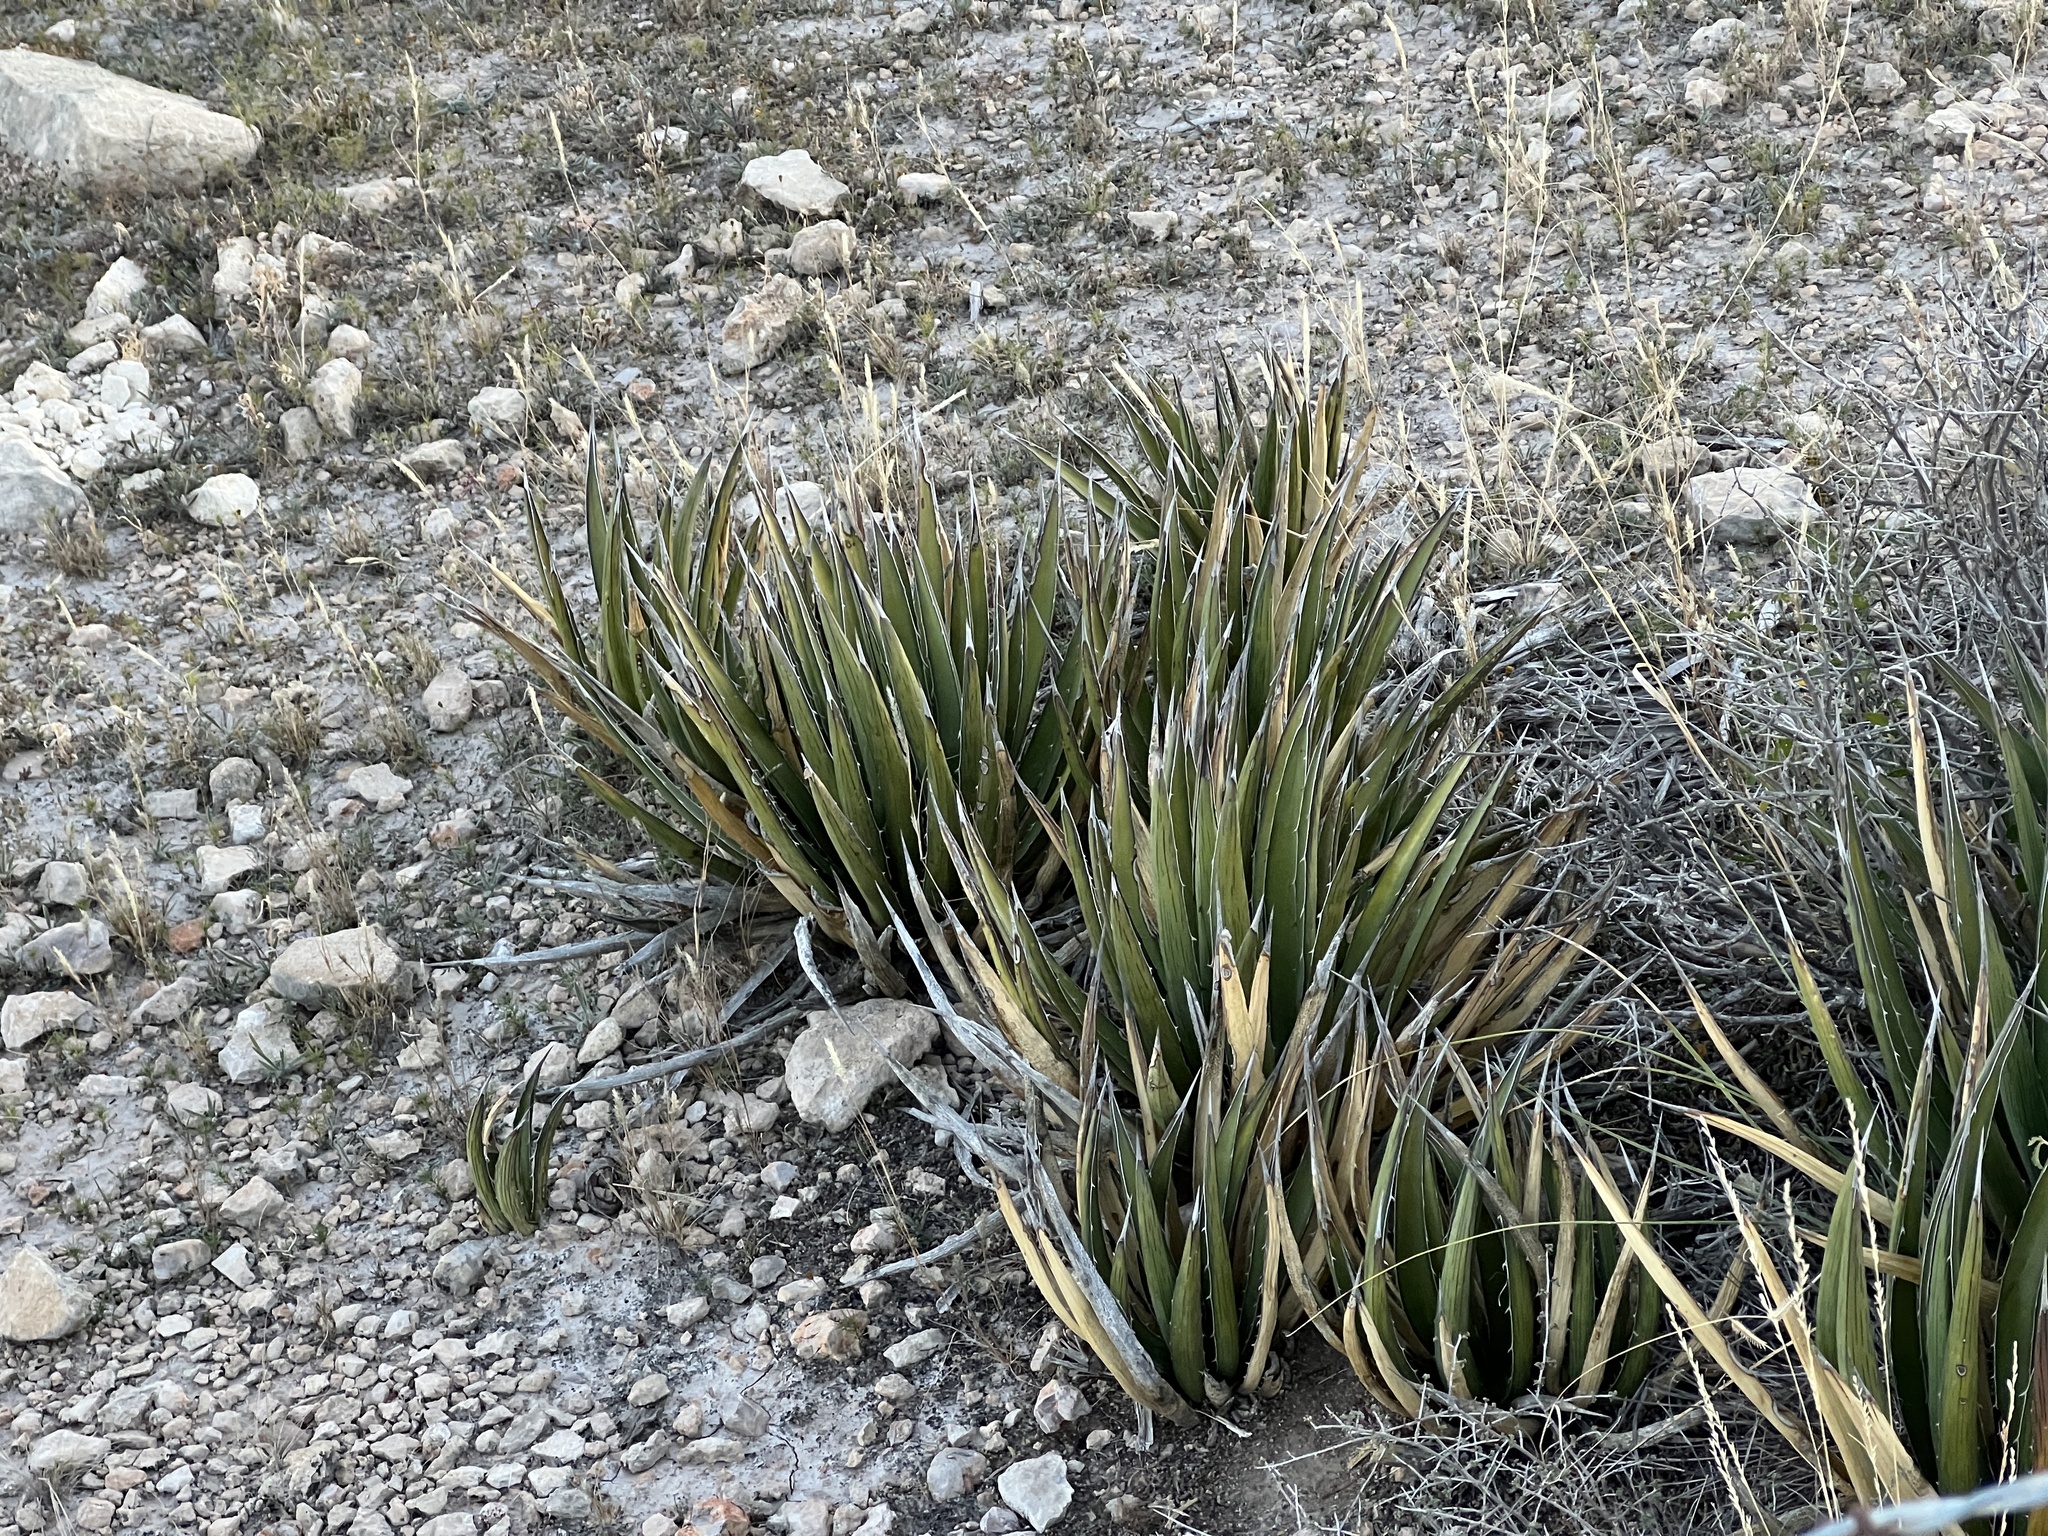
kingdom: Plantae
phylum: Tracheophyta
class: Liliopsida
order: Asparagales
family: Asparagaceae
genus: Agave
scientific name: Agave lechuguilla
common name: Lecheguilla agave
